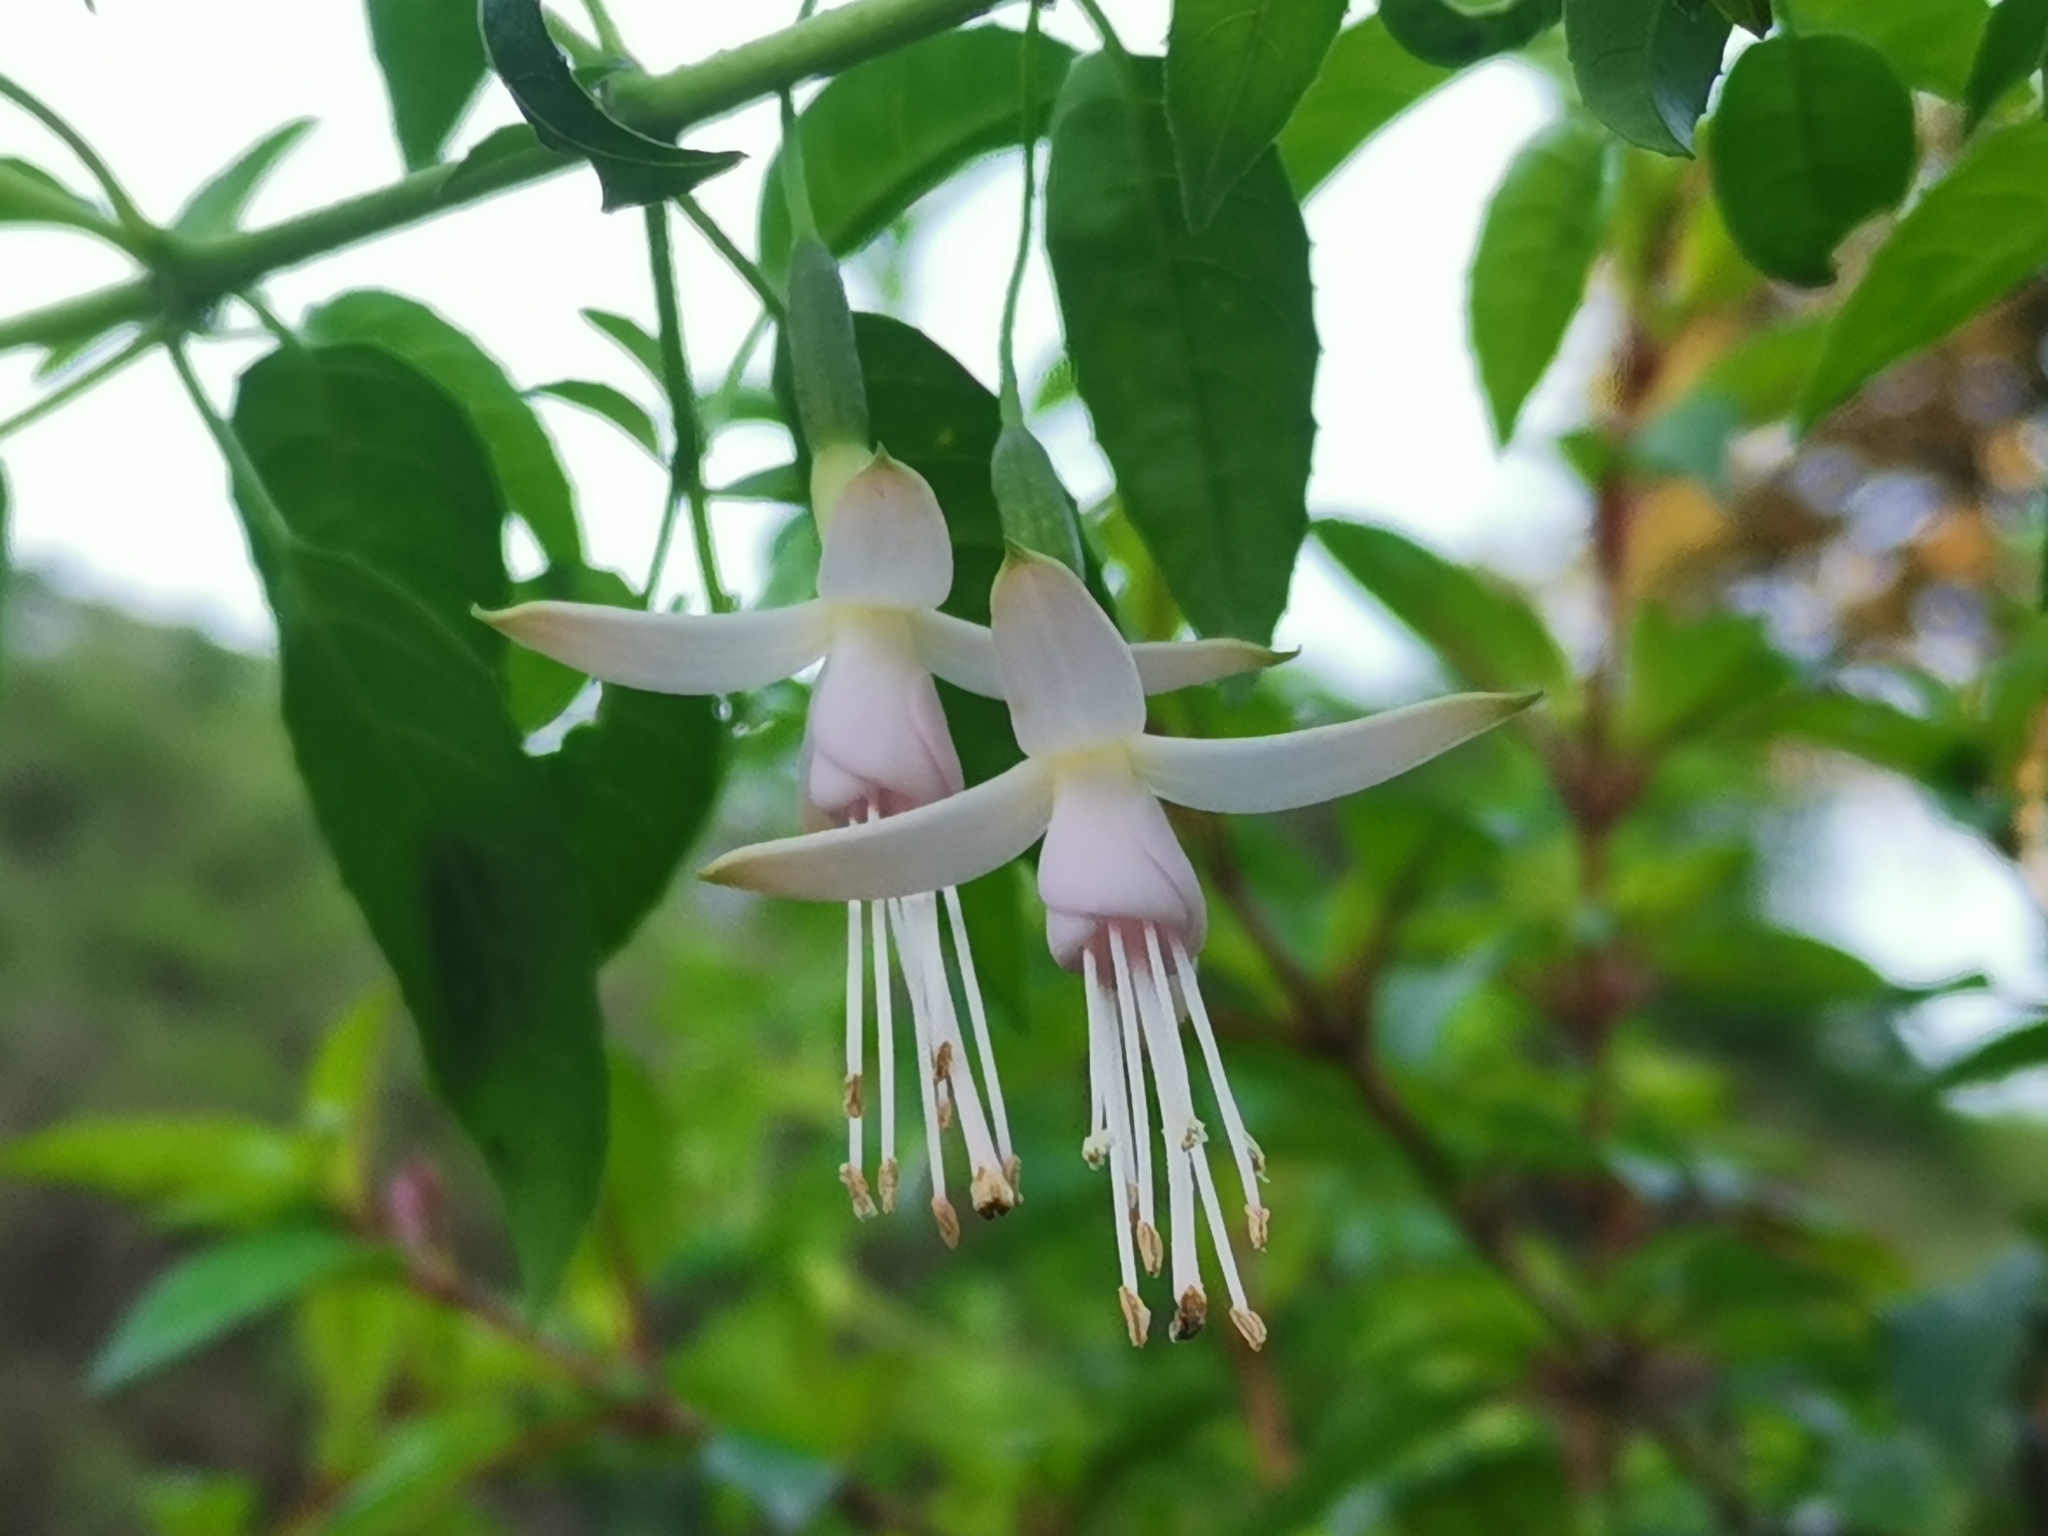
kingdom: Plantae
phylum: Tracheophyta
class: Magnoliopsida
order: Myrtales
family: Onagraceae
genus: Fuchsia
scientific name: Fuchsia magellanica
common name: Hardy fuchsia
